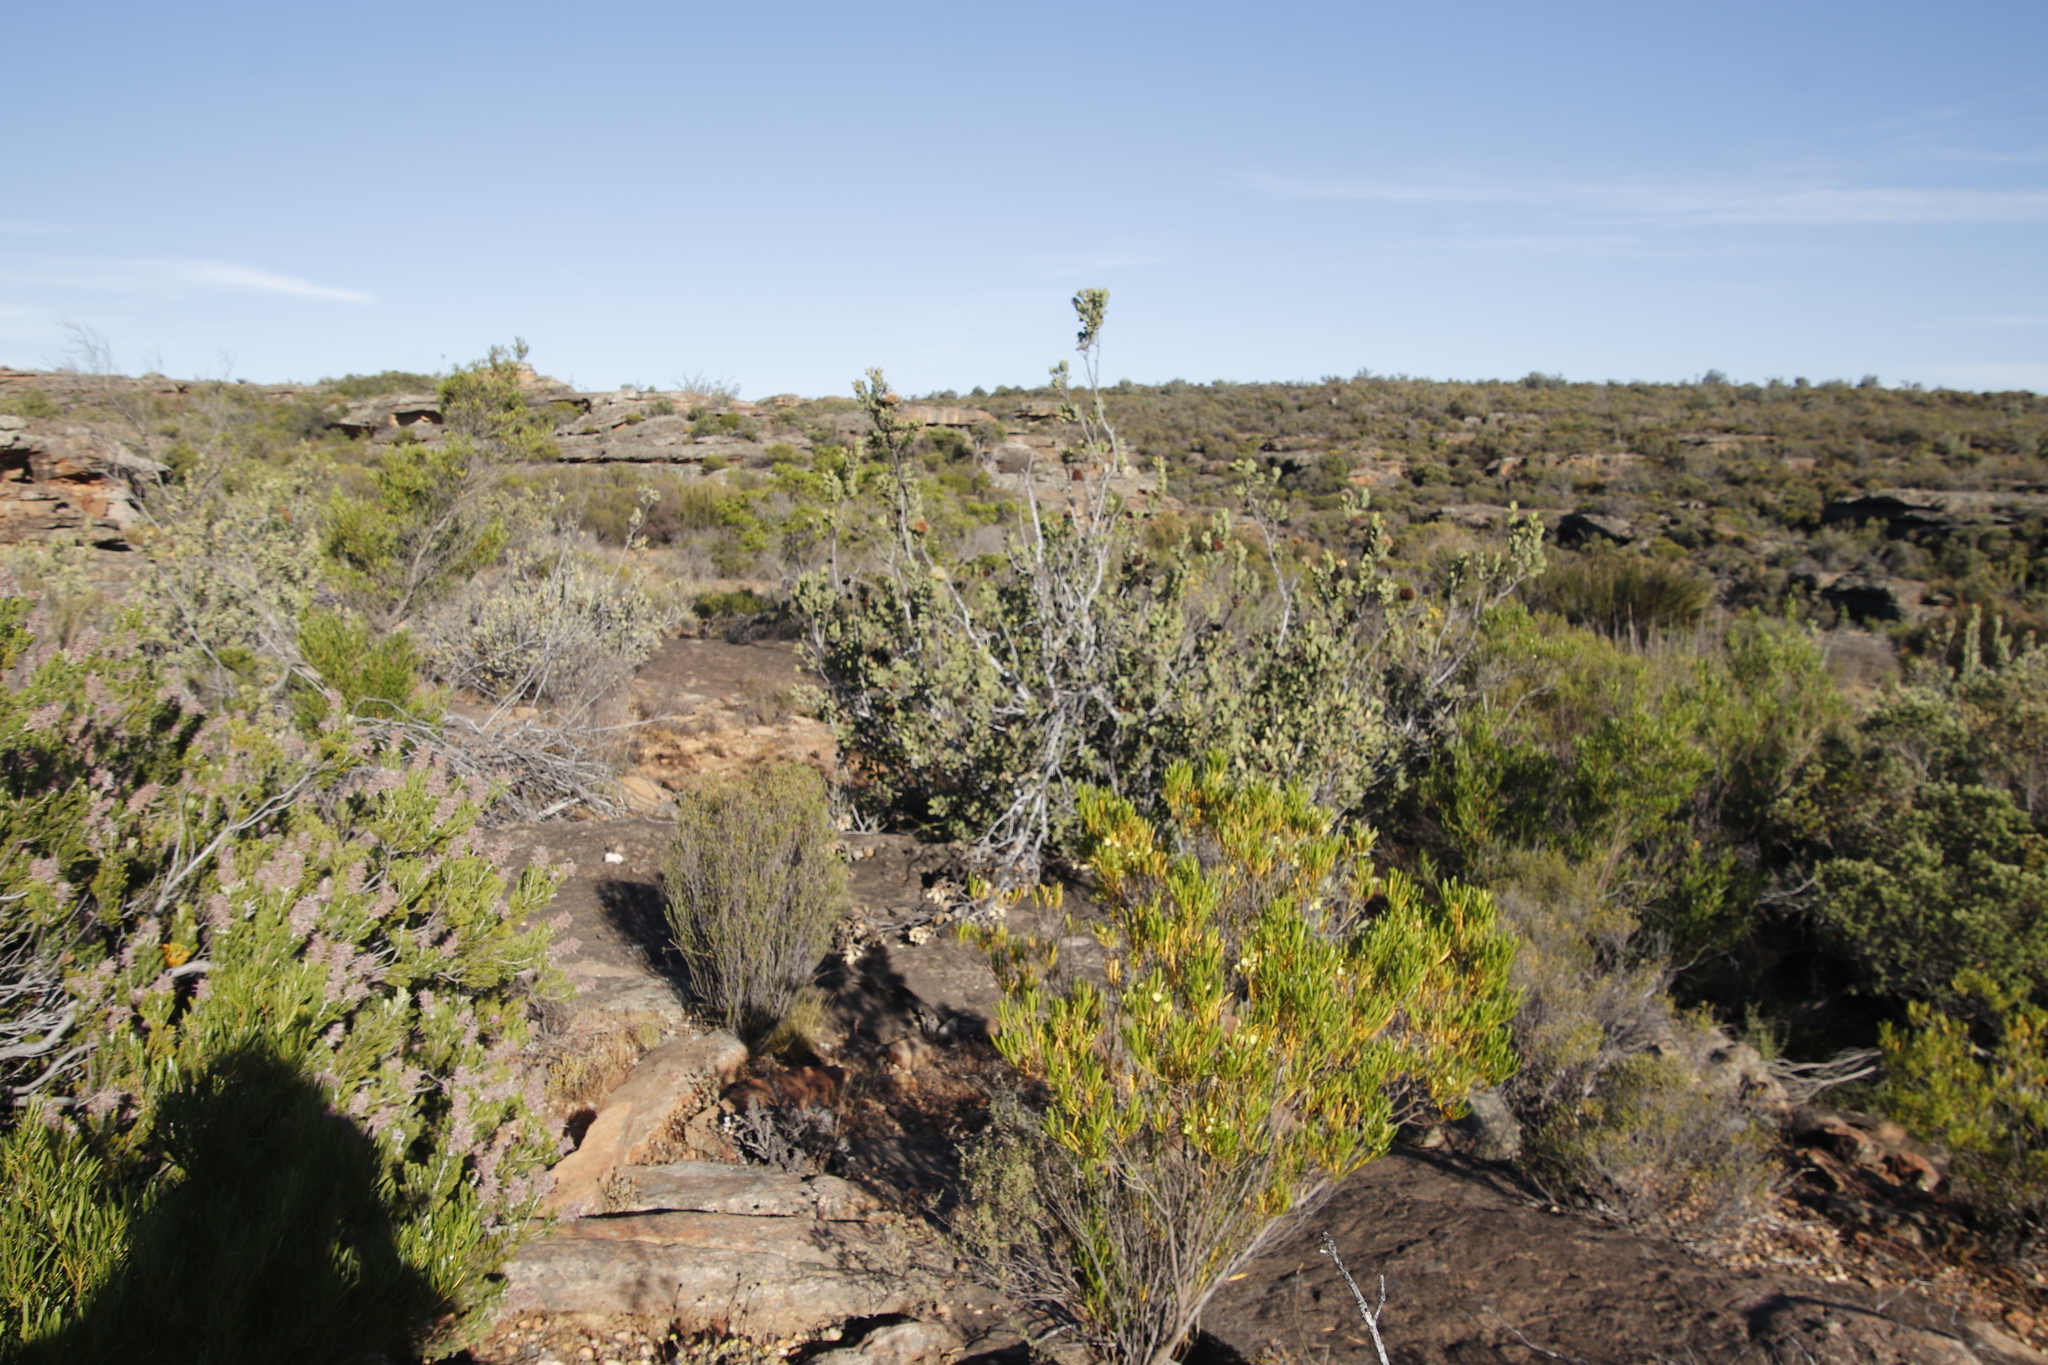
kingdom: Plantae
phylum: Tracheophyta
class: Magnoliopsida
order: Proteales
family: Proteaceae
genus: Protea
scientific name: Protea glabra
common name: Chestnut sugarbush
